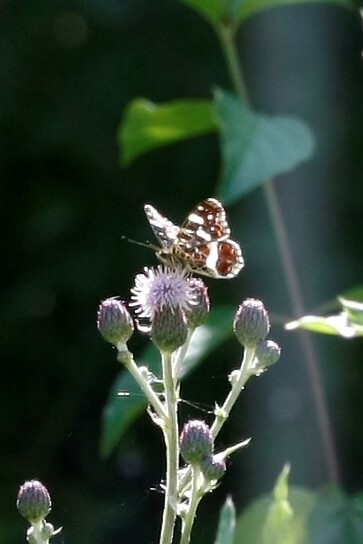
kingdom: Animalia
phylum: Arthropoda
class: Insecta
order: Lepidoptera
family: Nymphalidae
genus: Araschnia
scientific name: Araschnia levana
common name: Map butterfly
